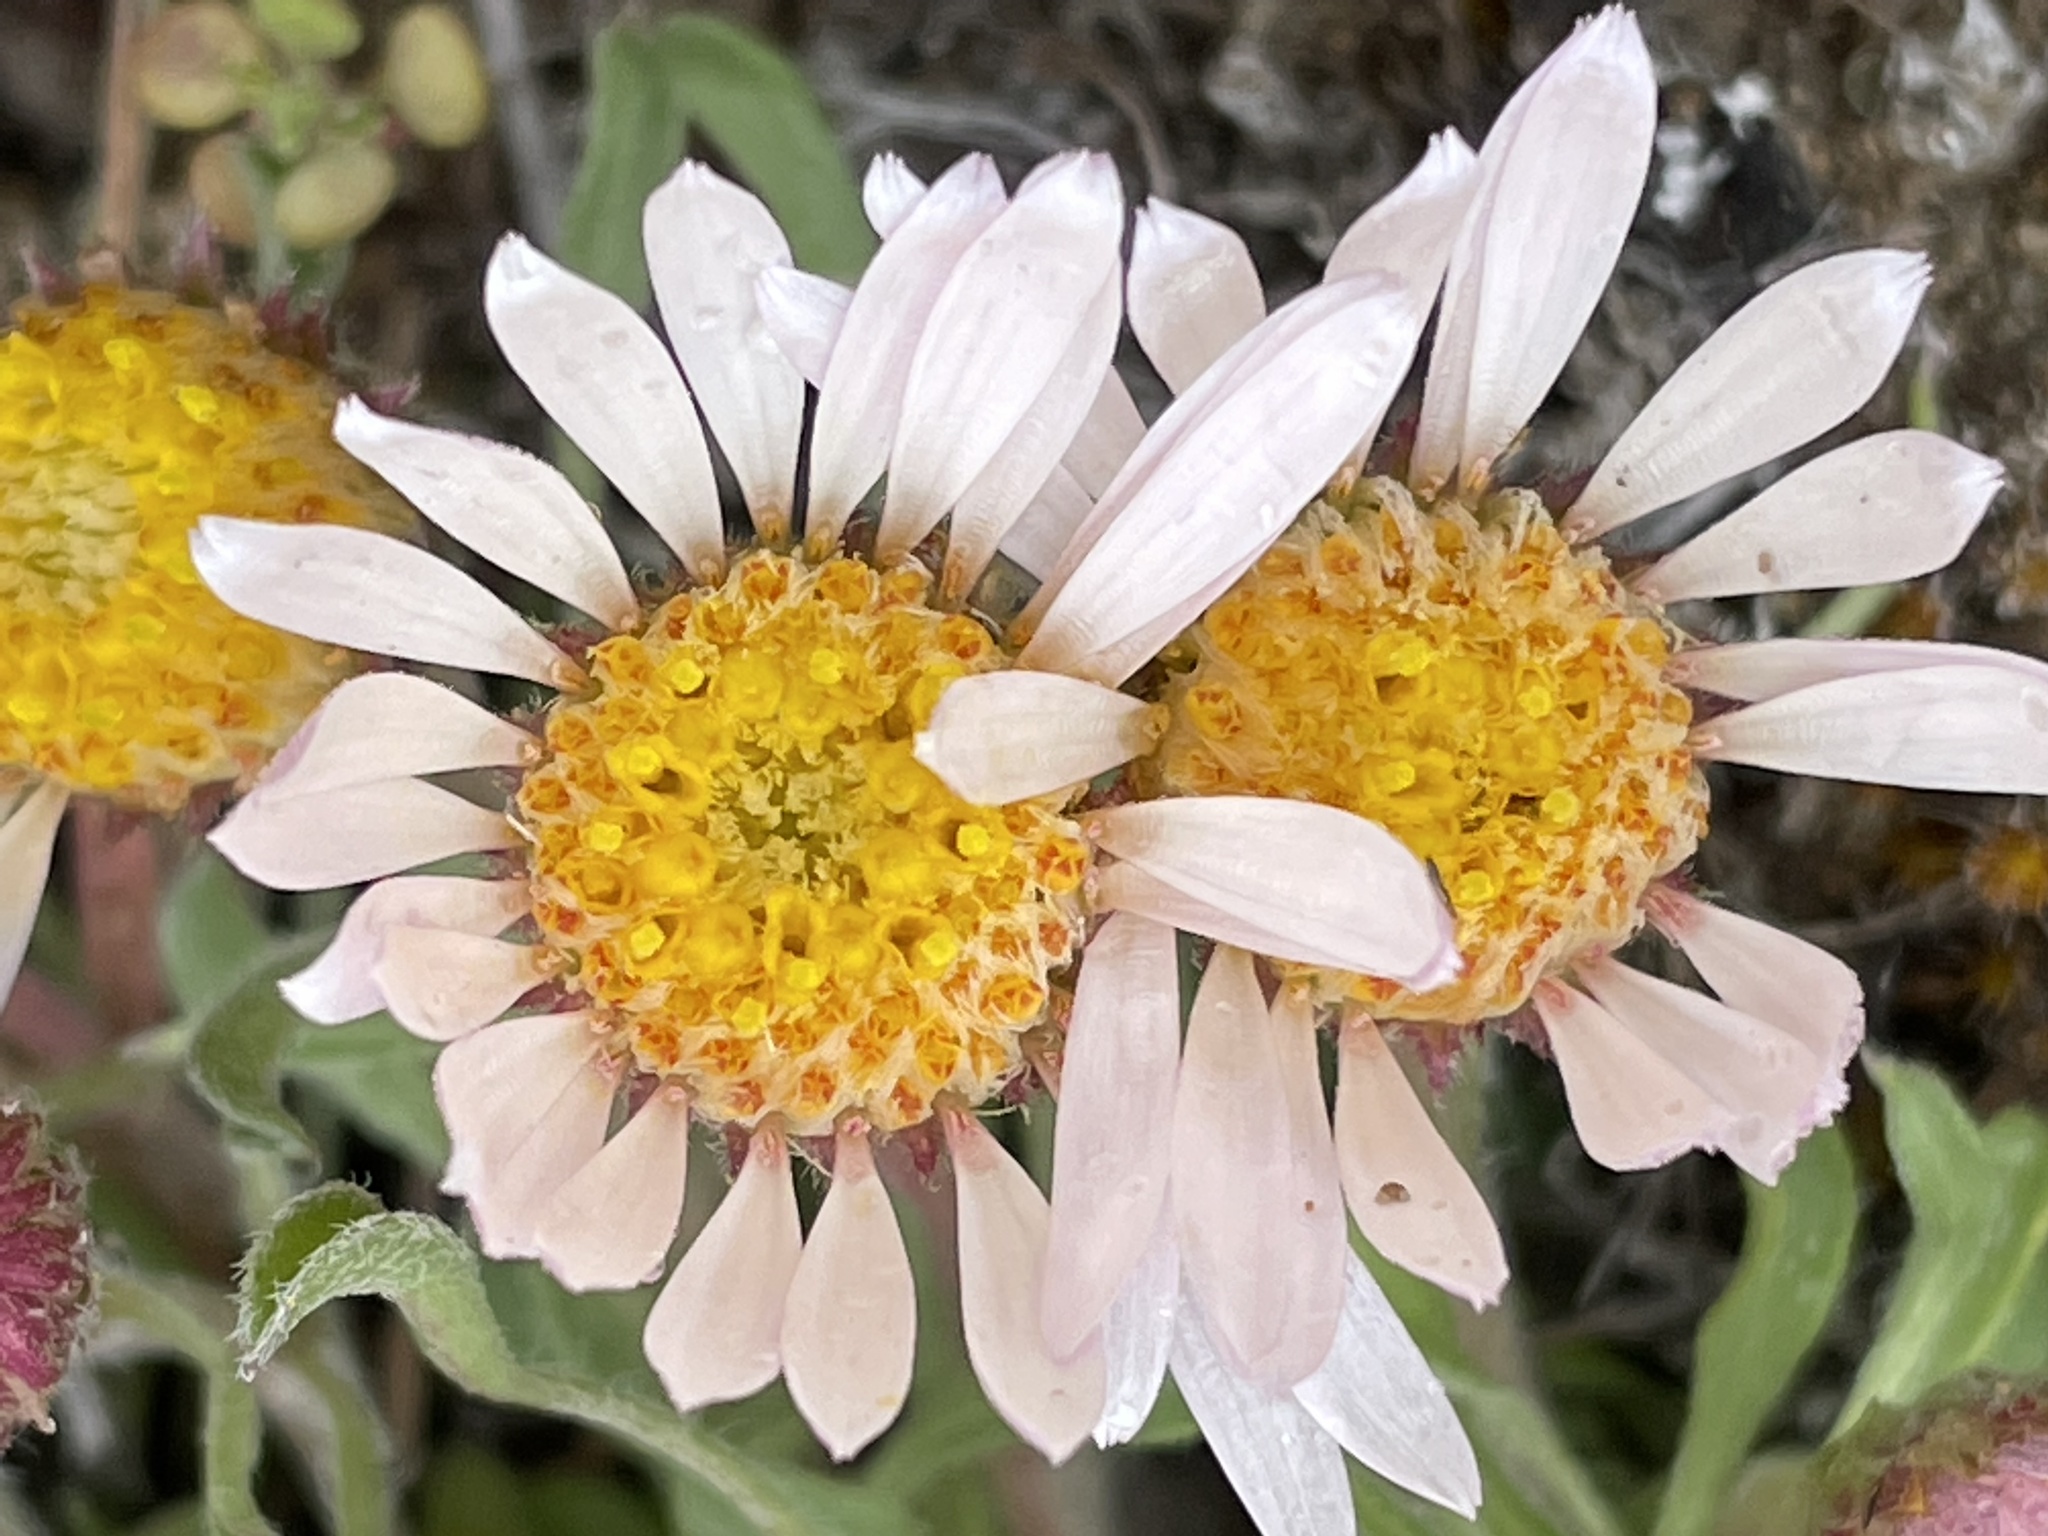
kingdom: Plantae
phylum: Tracheophyta
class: Magnoliopsida
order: Asterales
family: Asteraceae
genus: Townsendia
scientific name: Townsendia florifera
